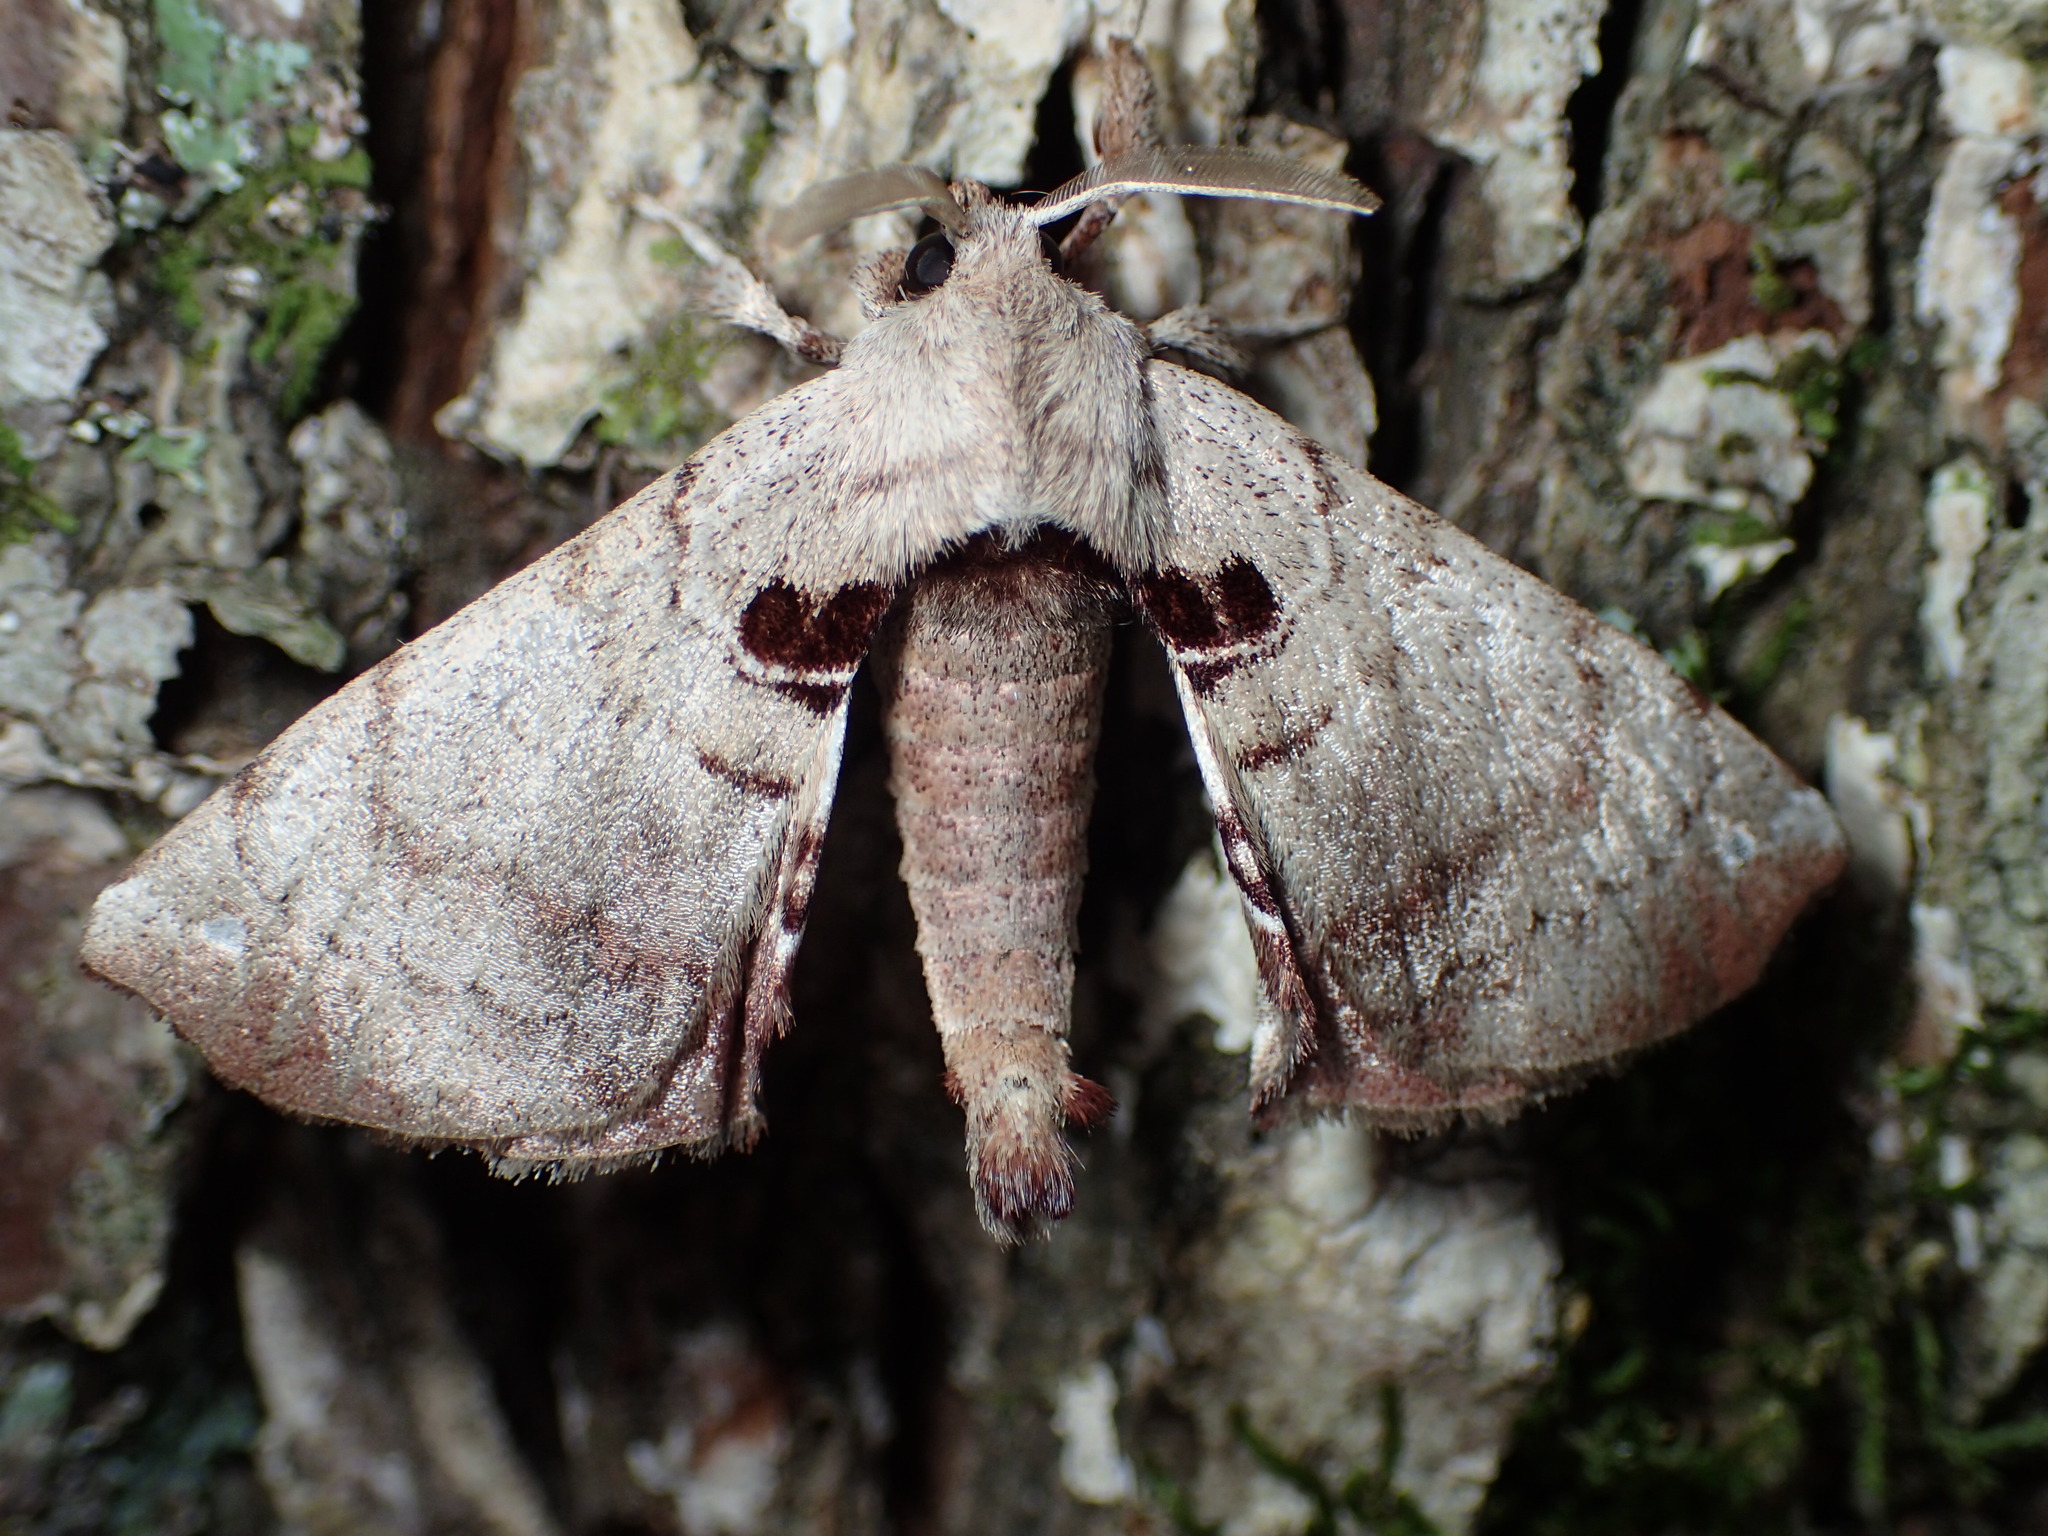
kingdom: Animalia
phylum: Arthropoda
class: Insecta
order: Lepidoptera
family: Apatelodidae
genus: Hygrochroa
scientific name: Hygrochroa Apatelodes torrefacta
